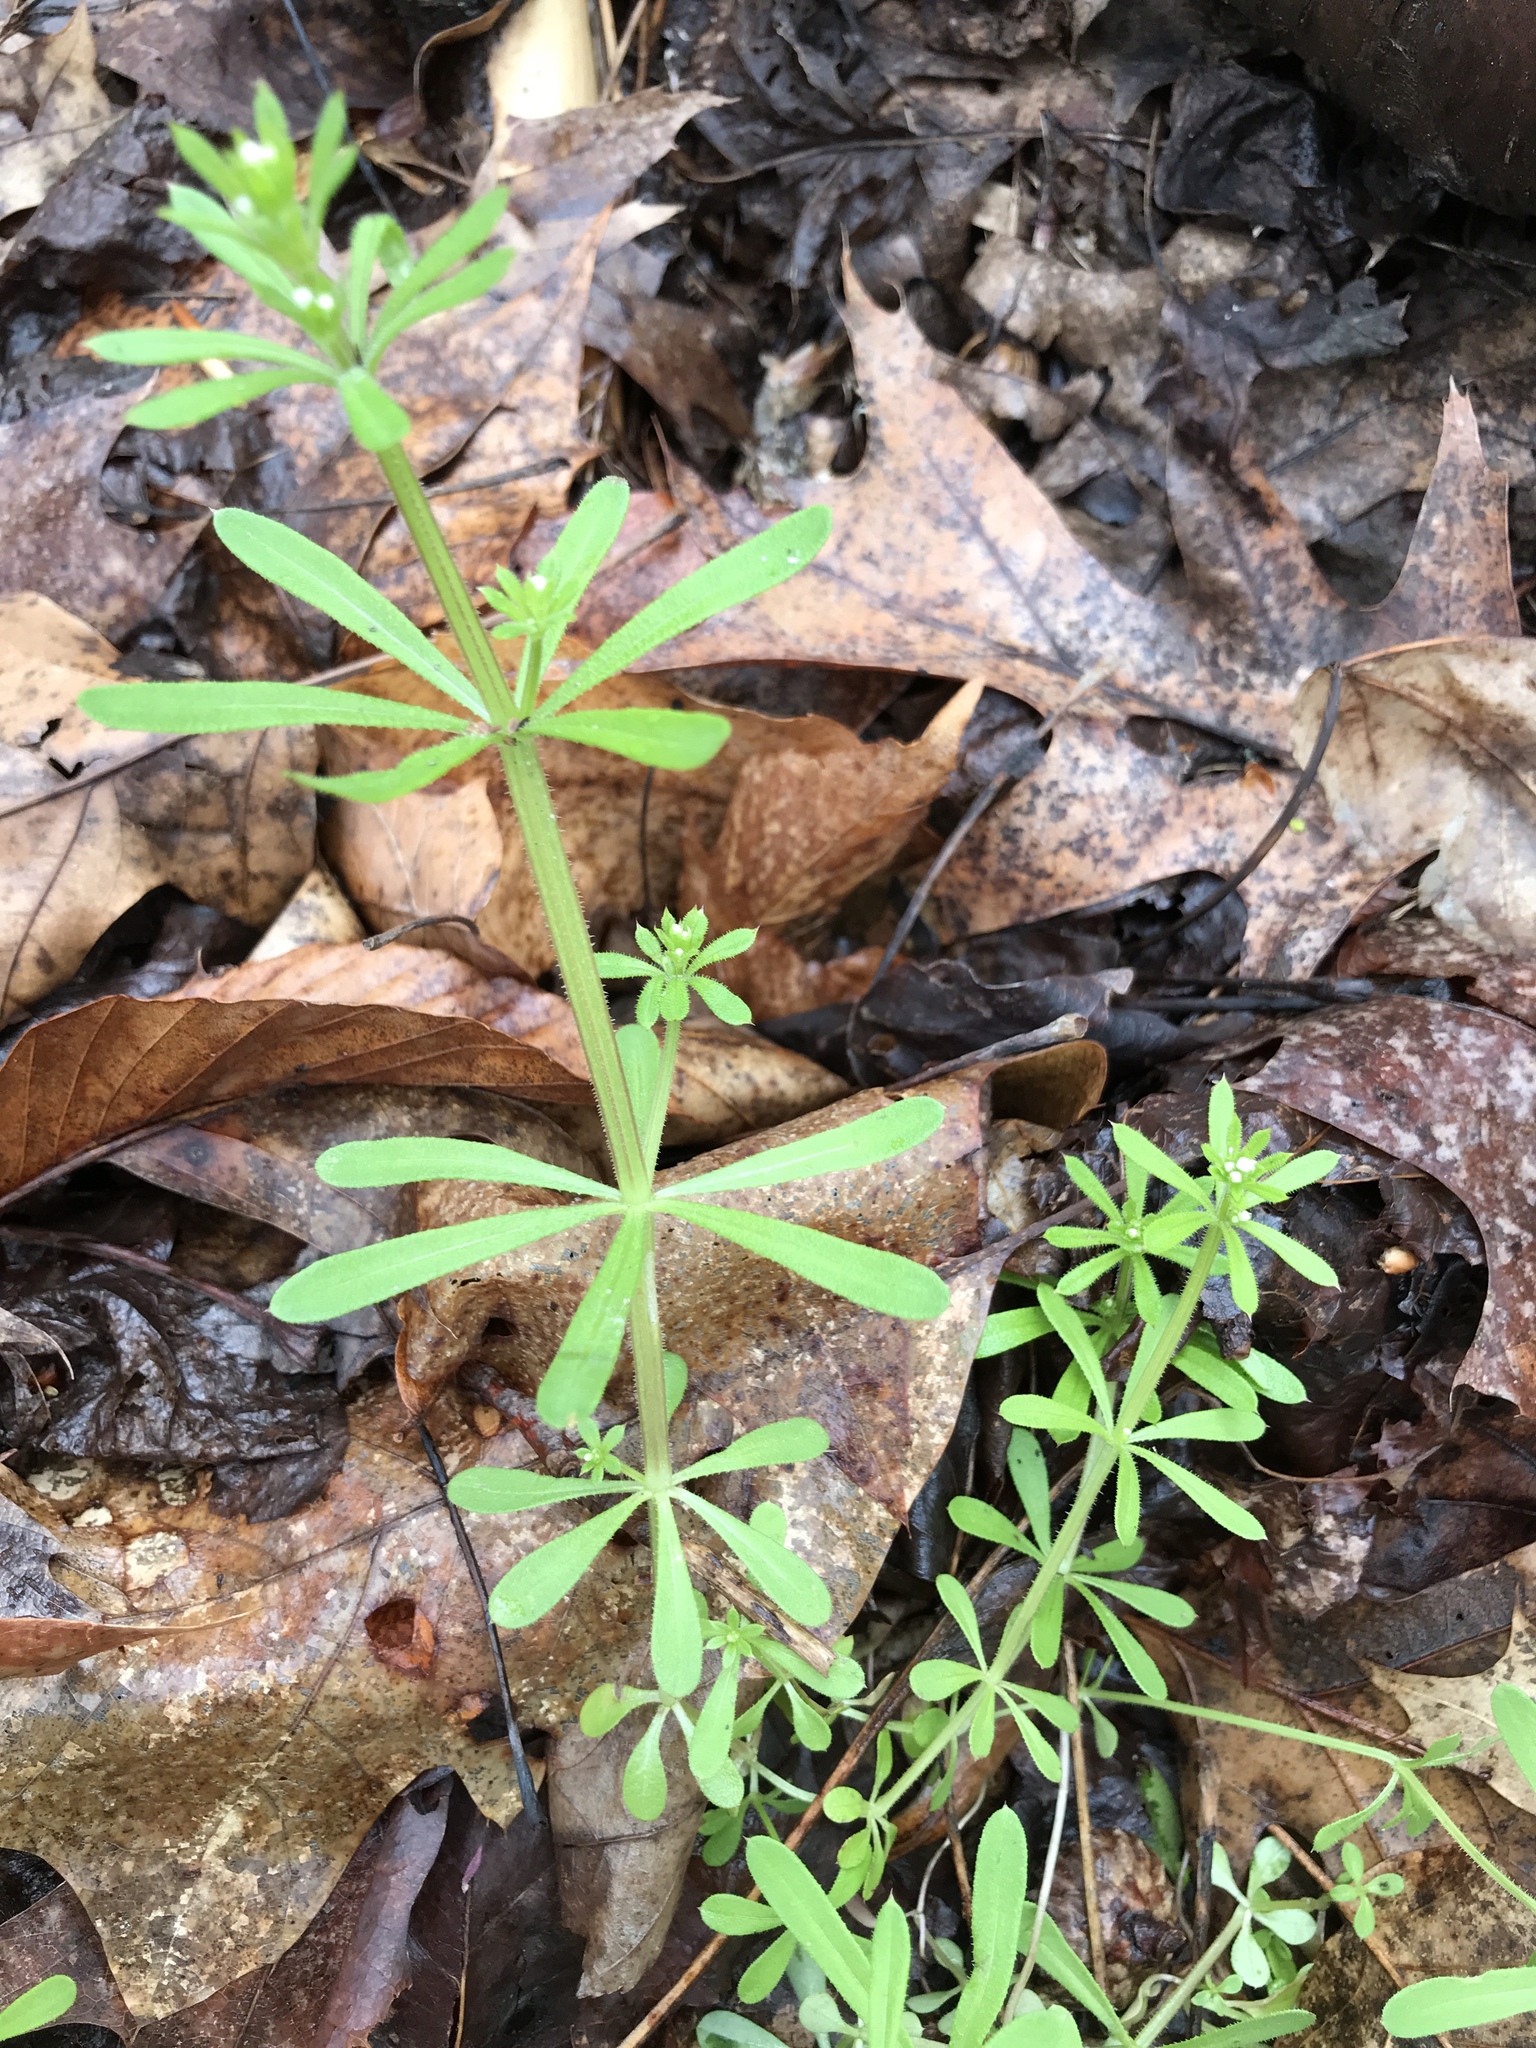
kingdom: Plantae
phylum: Tracheophyta
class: Magnoliopsida
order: Gentianales
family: Rubiaceae
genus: Galium
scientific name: Galium aparine
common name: Cleavers
